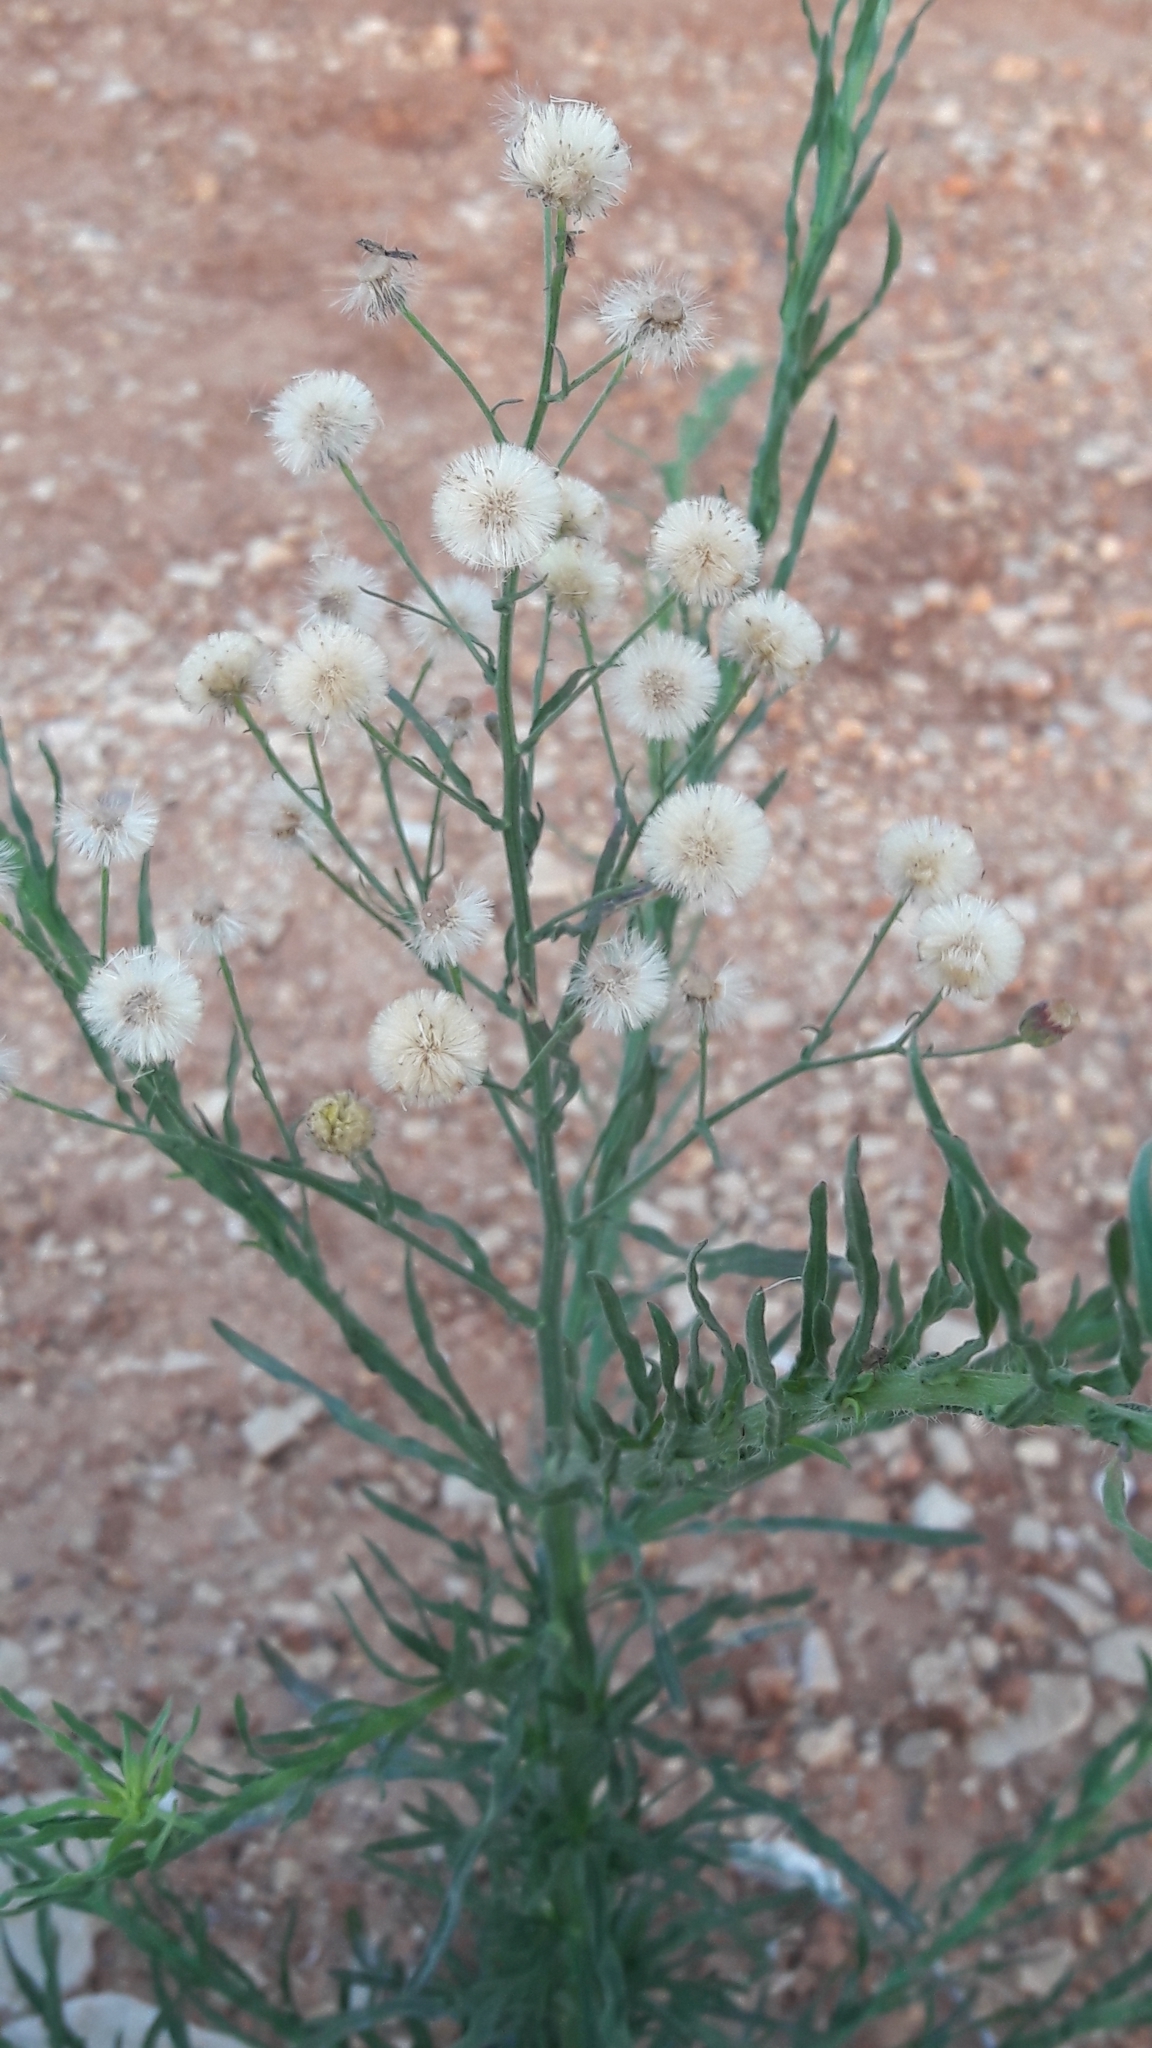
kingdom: Plantae
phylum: Tracheophyta
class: Magnoliopsida
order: Asterales
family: Asteraceae
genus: Erigeron
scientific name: Erigeron bonariensis
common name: Argentine fleabane
